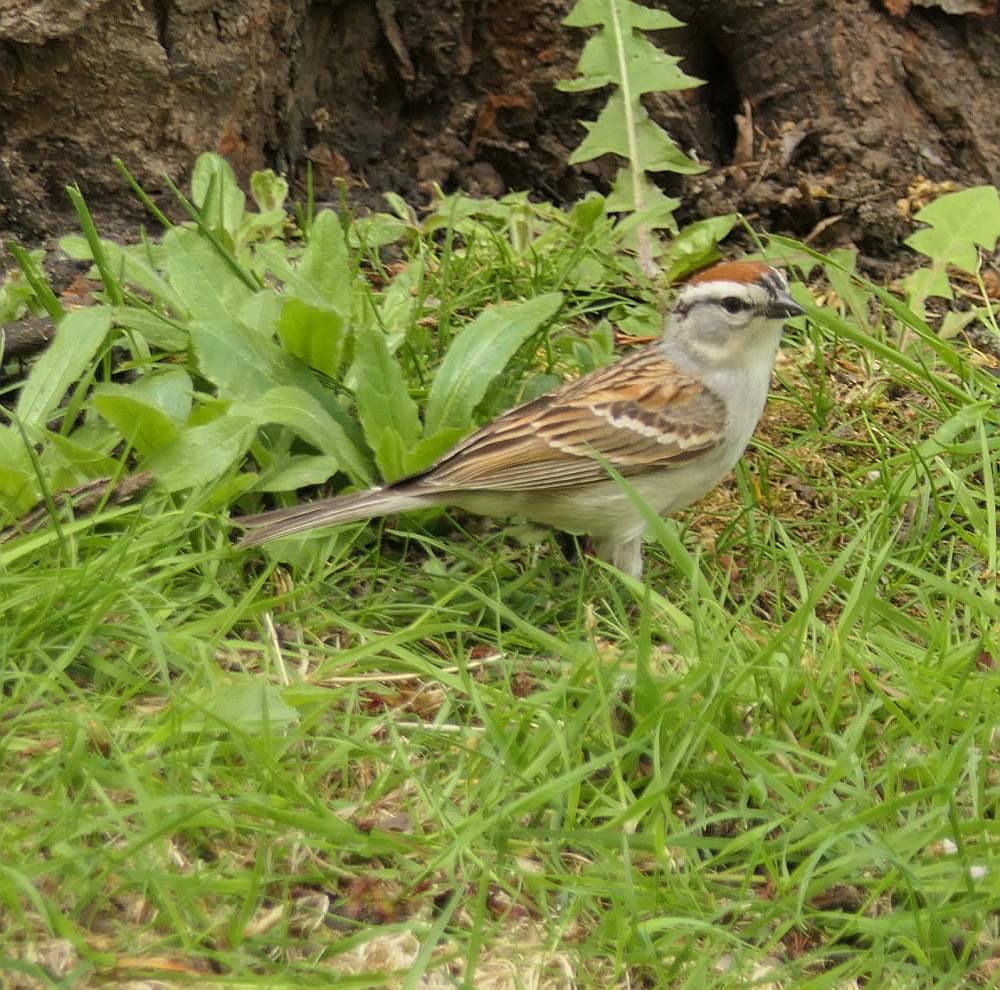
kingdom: Animalia
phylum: Chordata
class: Aves
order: Passeriformes
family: Passerellidae
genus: Spizella
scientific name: Spizella passerina
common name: Chipping sparrow
